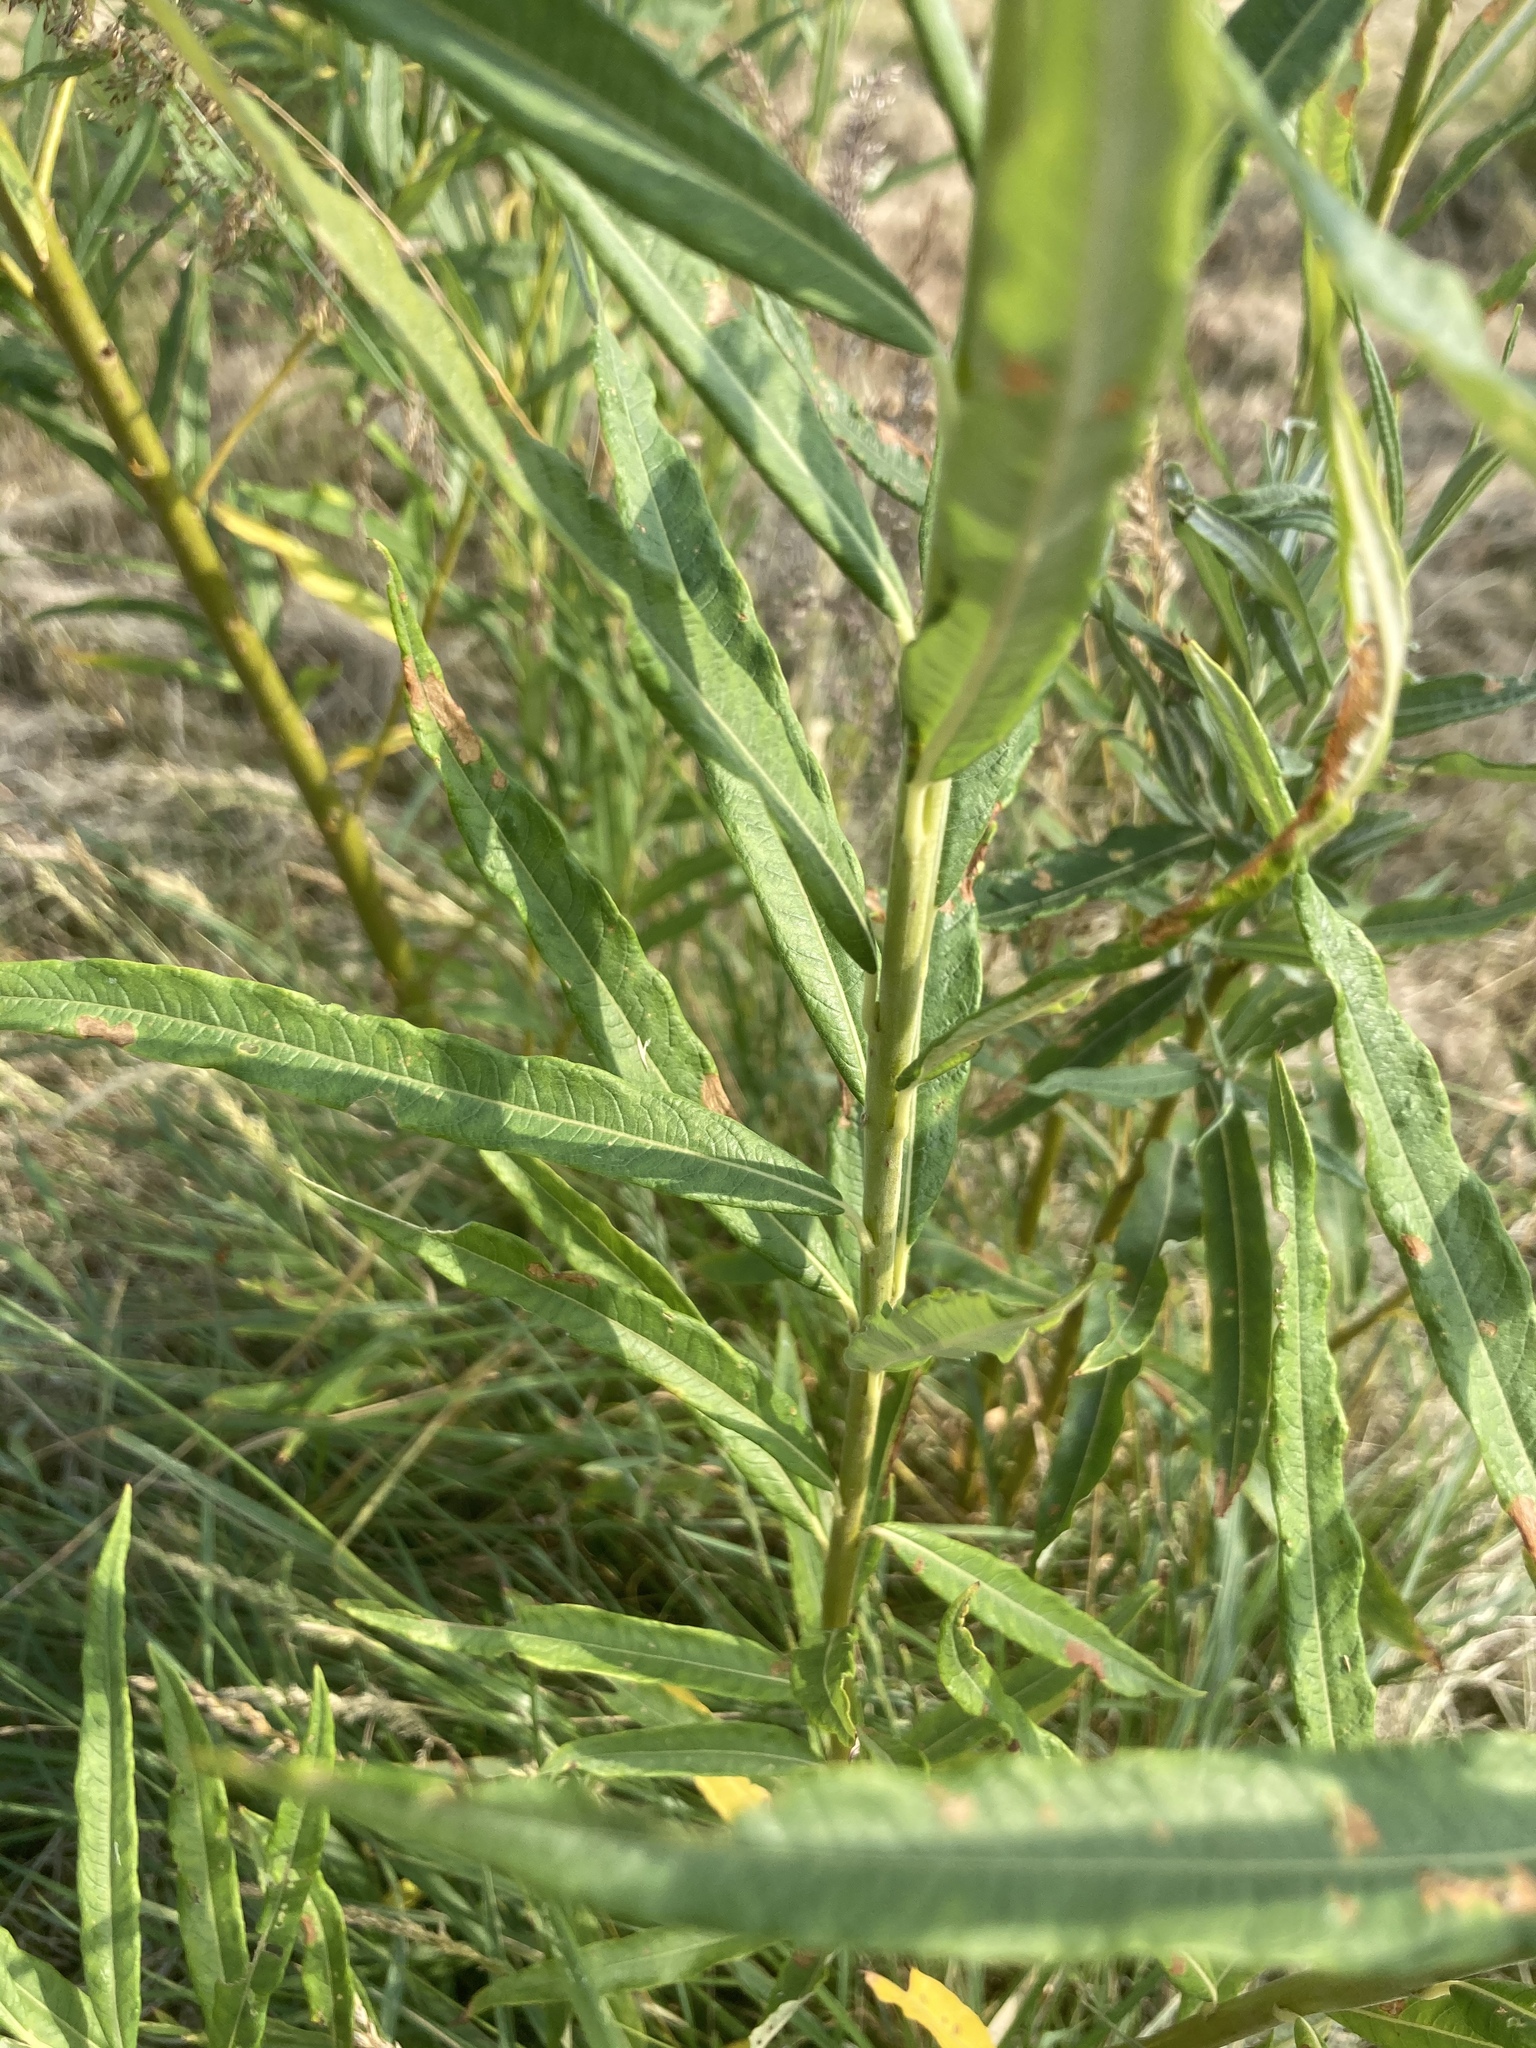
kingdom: Plantae
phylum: Tracheophyta
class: Magnoliopsida
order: Malpighiales
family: Salicaceae
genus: Salix
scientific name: Salix viminalis
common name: Osier
